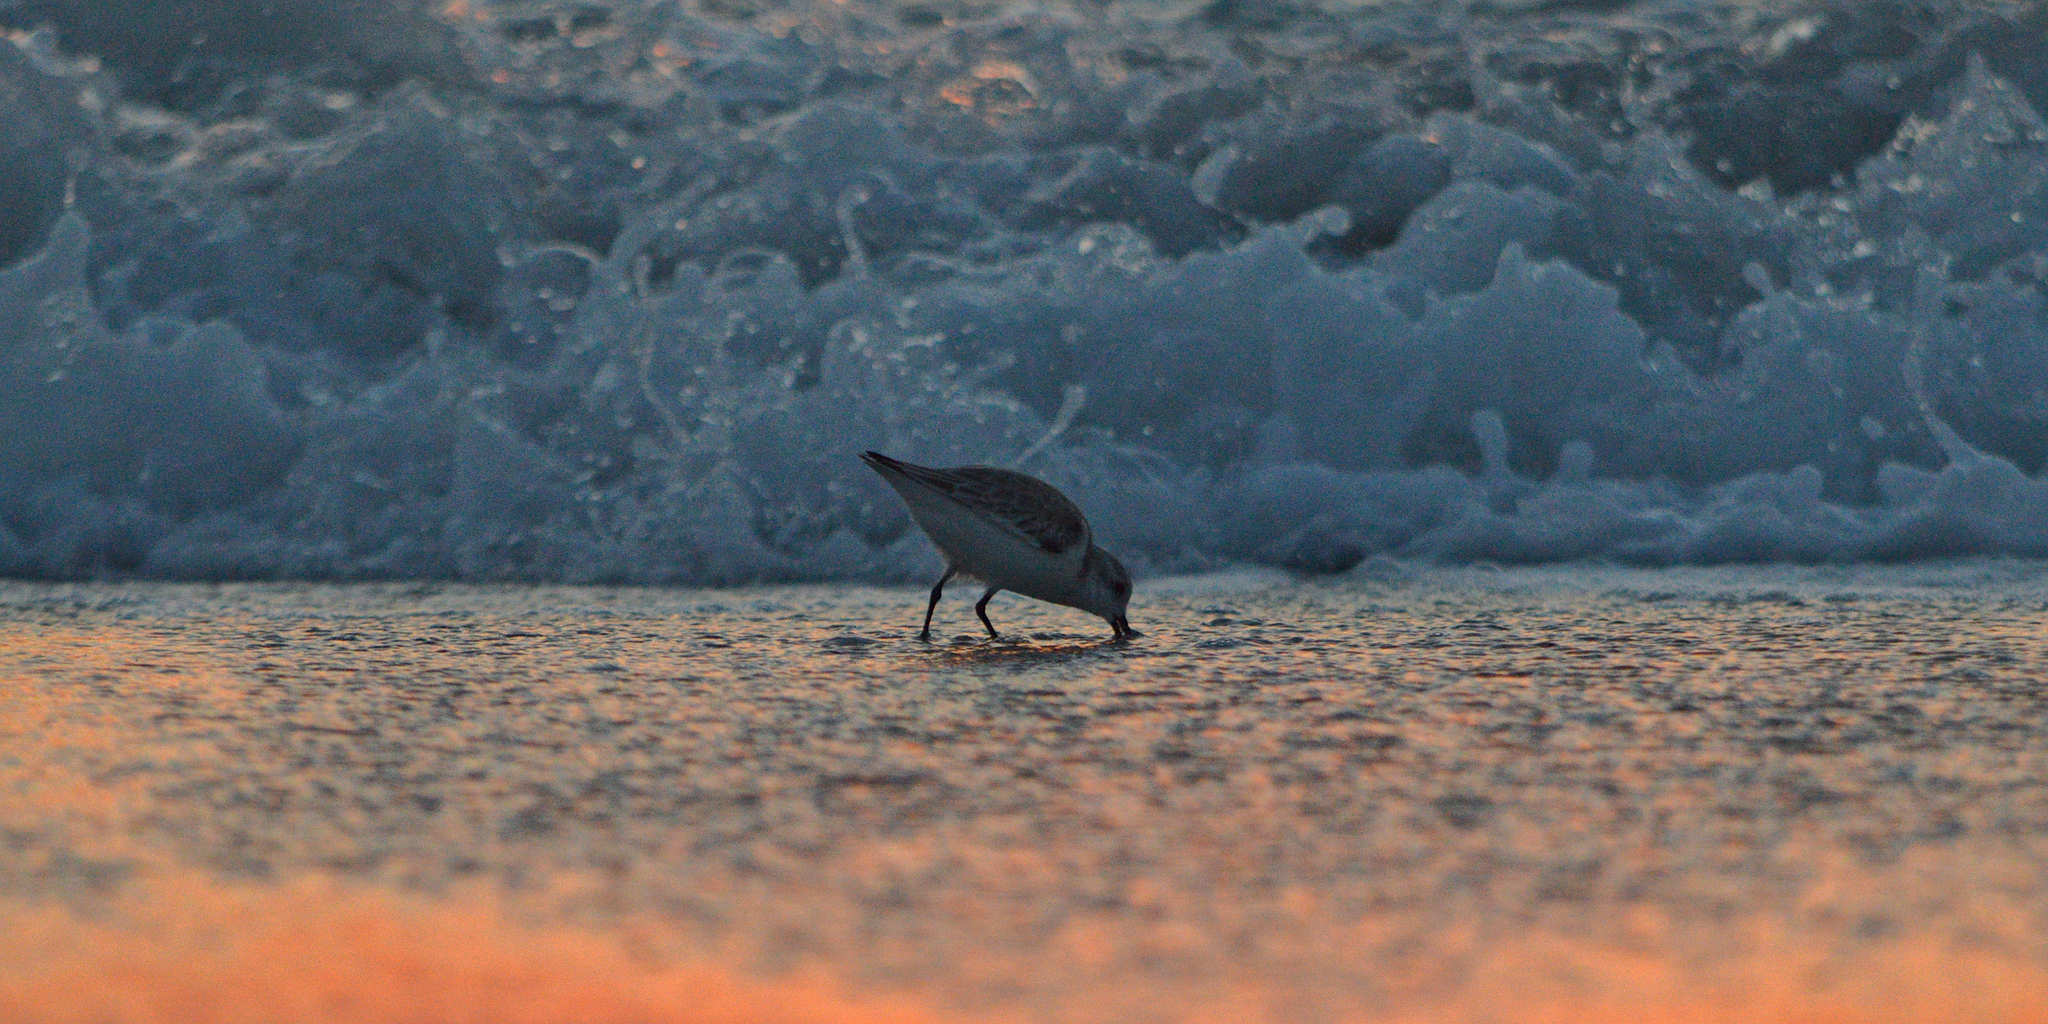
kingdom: Animalia
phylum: Chordata
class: Aves
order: Charadriiformes
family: Scolopacidae
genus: Calidris
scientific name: Calidris alba
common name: Sanderling
